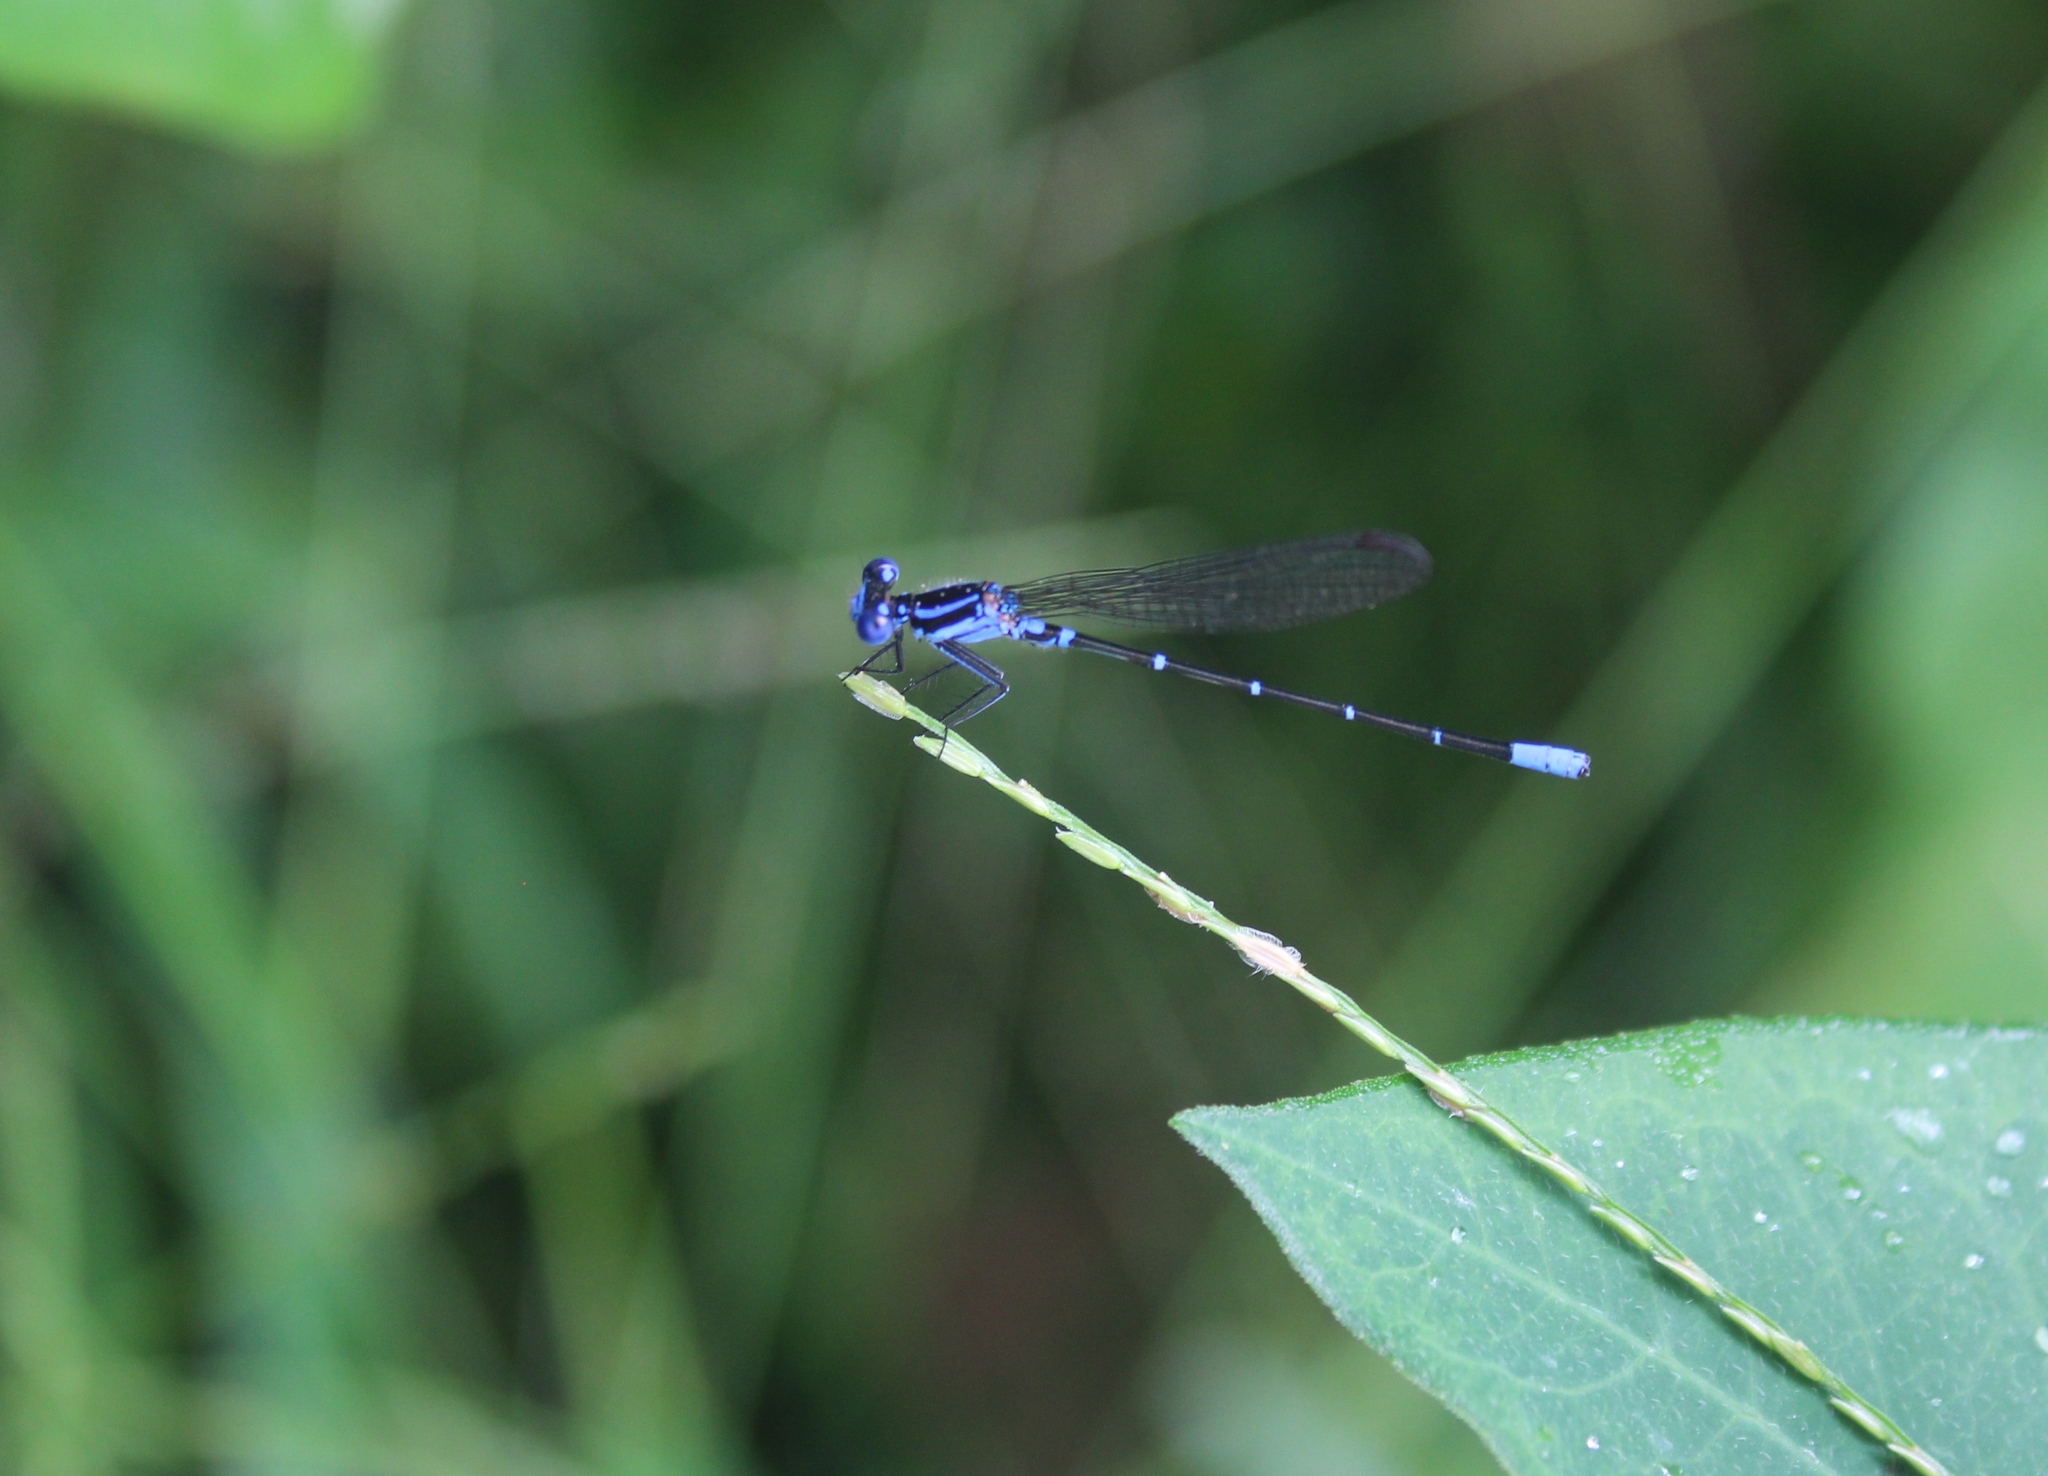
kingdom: Animalia
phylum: Arthropoda
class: Insecta
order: Odonata
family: Coenagrionidae
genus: Argia
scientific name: Argia gaumeri
